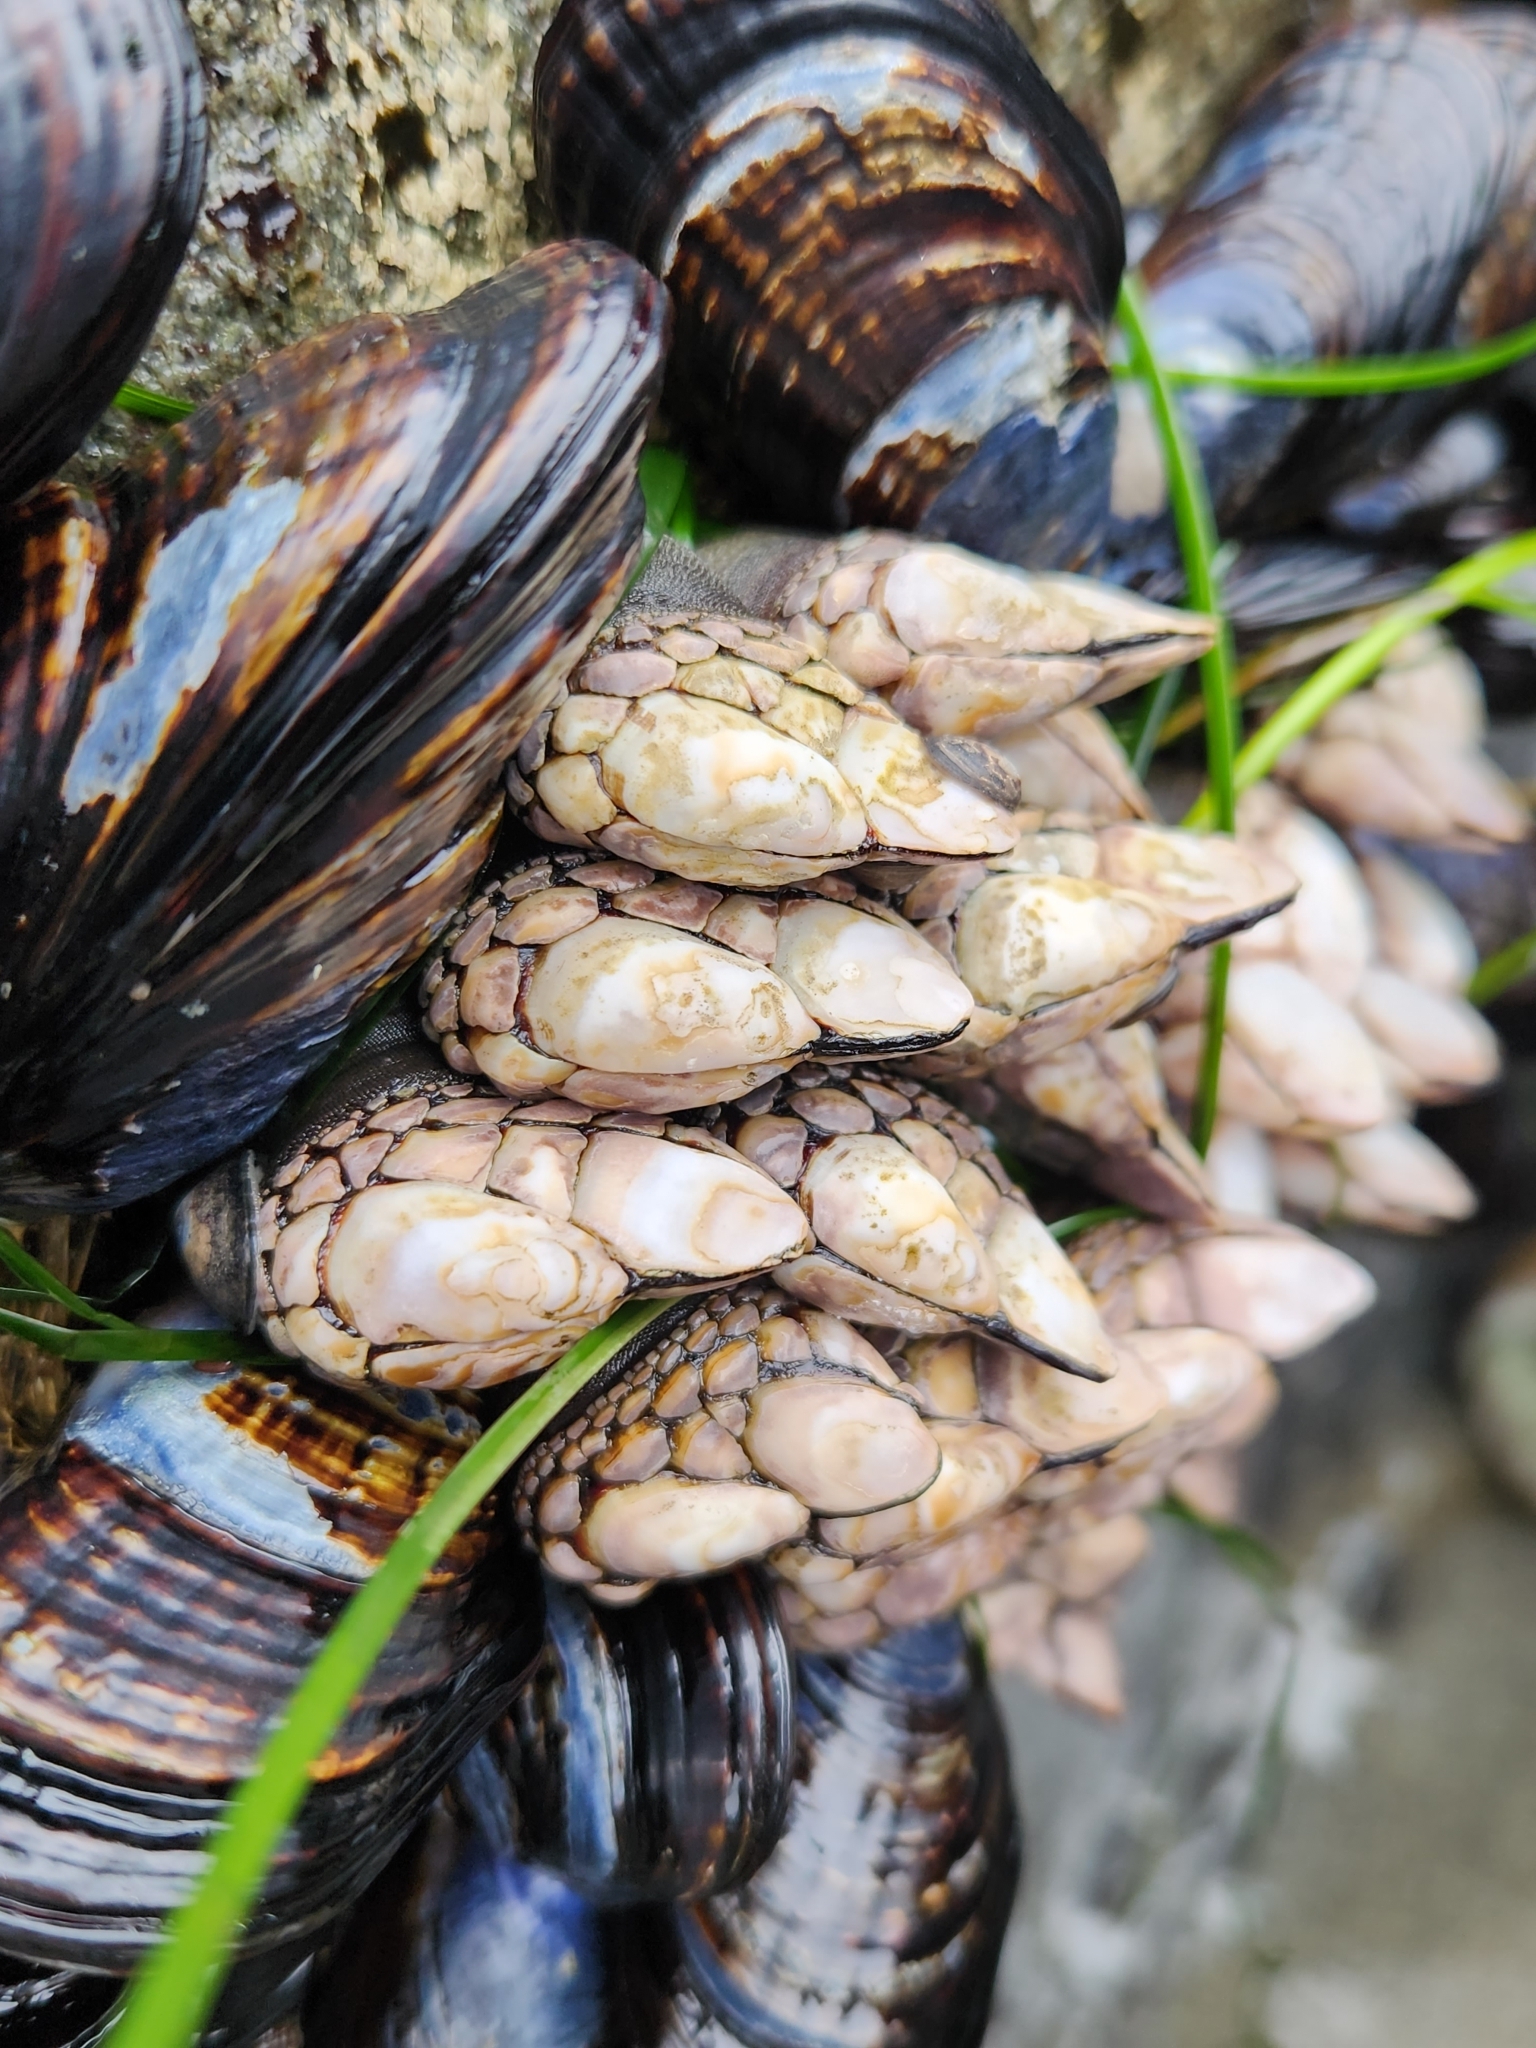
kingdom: Animalia
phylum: Arthropoda
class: Maxillopoda
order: Pedunculata
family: Pollicipedidae
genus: Pollicipes
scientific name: Pollicipes polymerus
